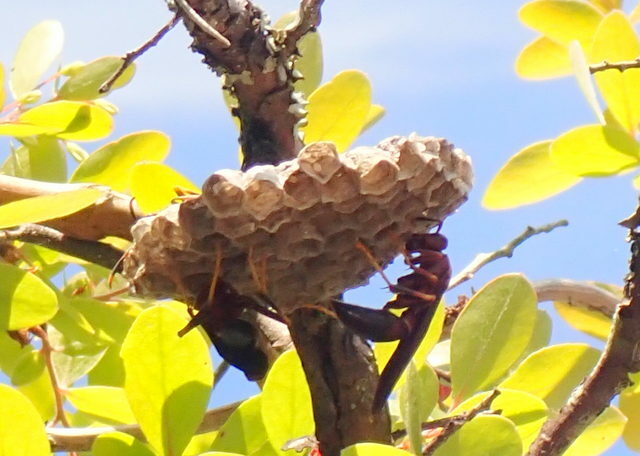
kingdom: Animalia
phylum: Arthropoda
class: Insecta
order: Hymenoptera
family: Eumenidae
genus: Polistes
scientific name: Polistes annularis
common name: Ringed paper wasp
